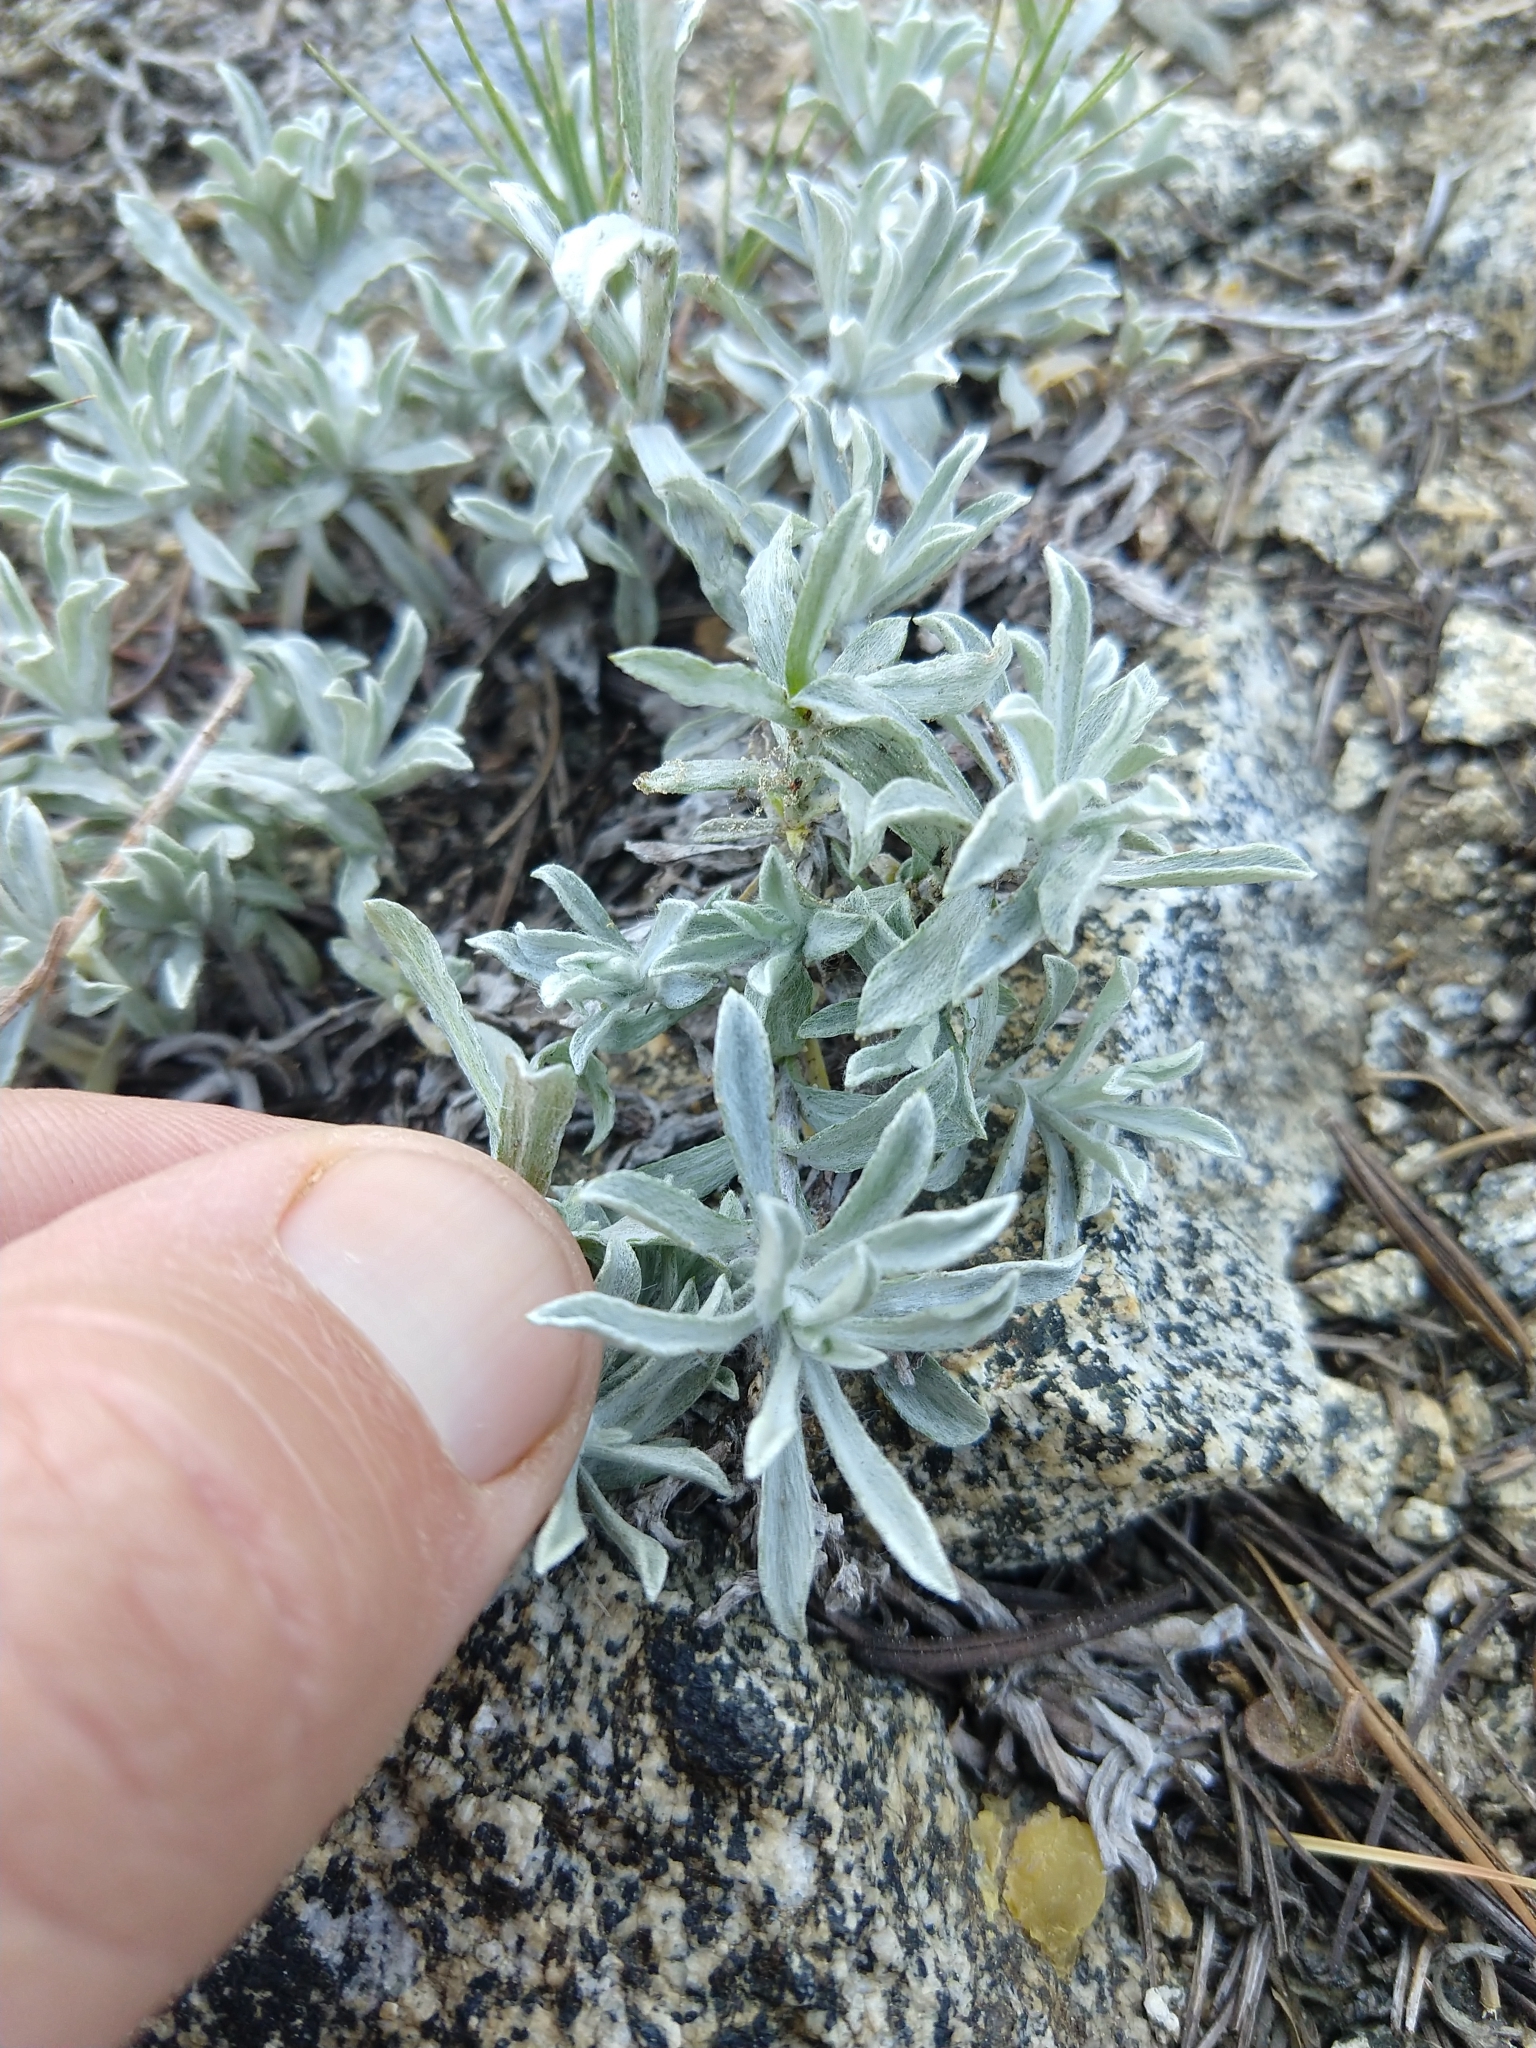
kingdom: Plantae
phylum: Tracheophyta
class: Magnoliopsida
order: Asterales
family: Asteraceae
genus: Antennaria
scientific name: Antennaria rosea
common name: Rosy pussytoes
